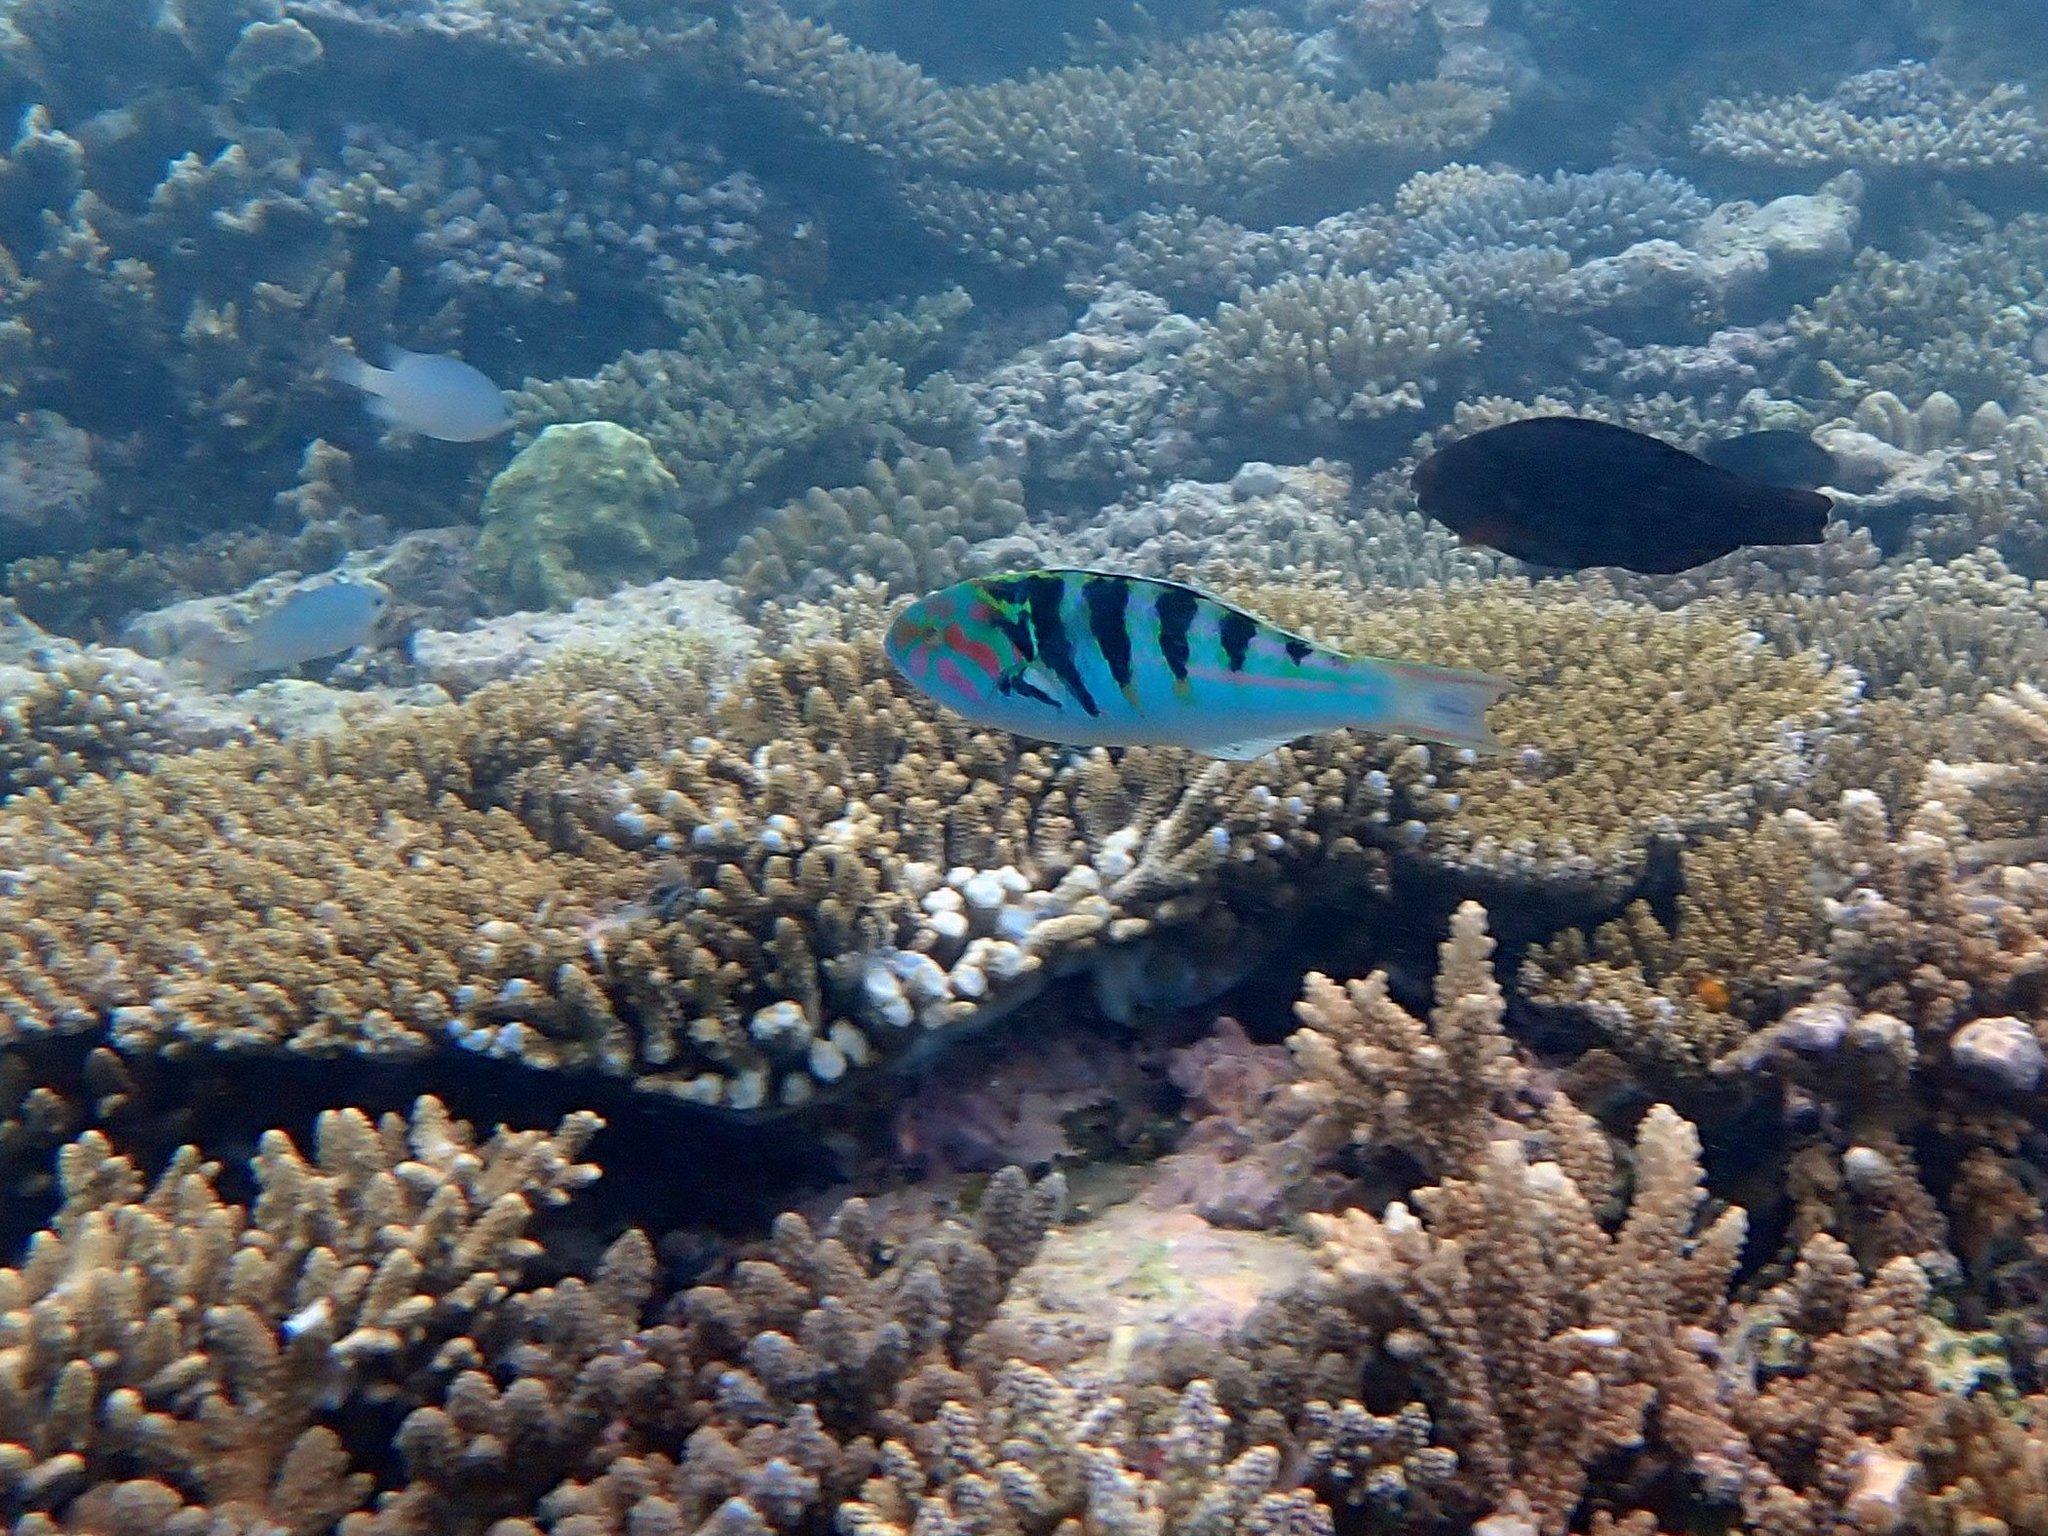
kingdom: Animalia
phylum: Chordata
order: Perciformes
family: Labridae
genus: Thalassoma
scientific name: Thalassoma hardwicke
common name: Sixbar wrasse
